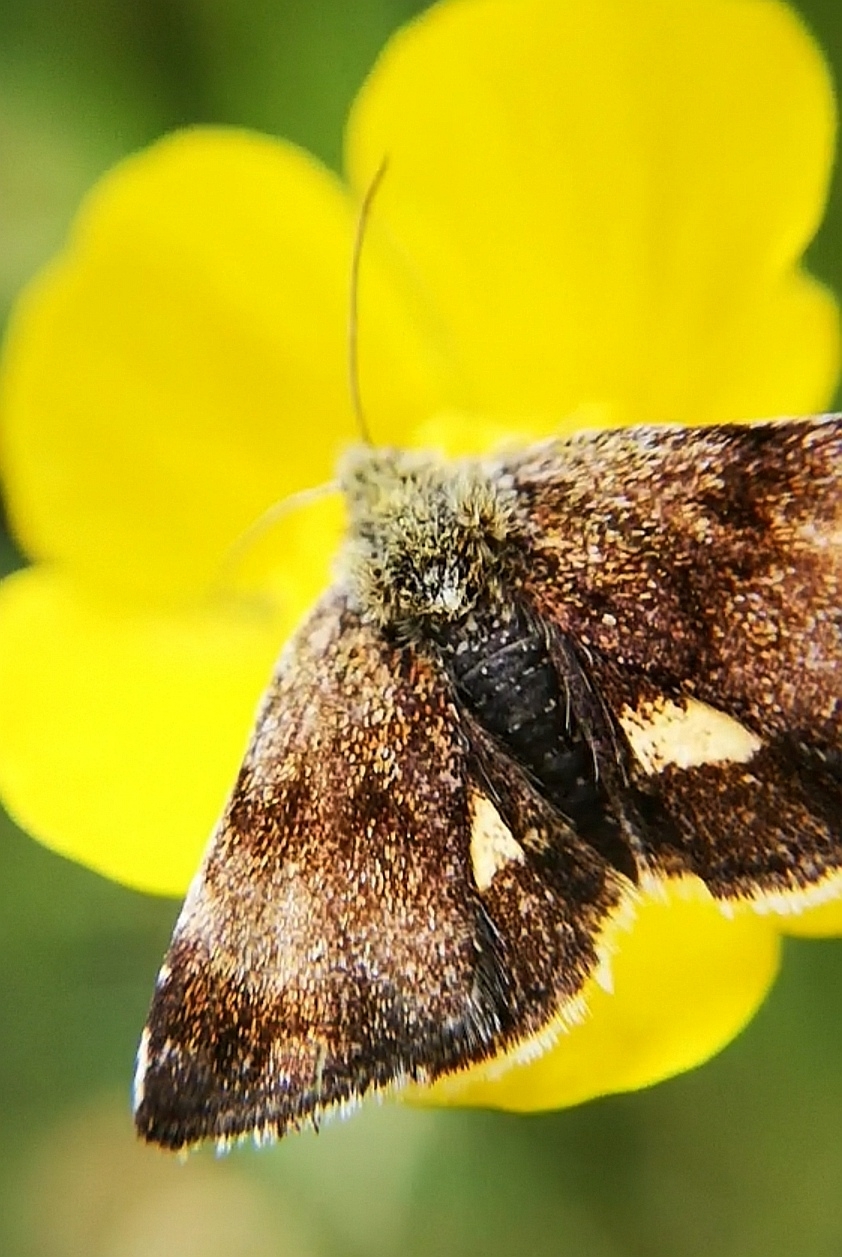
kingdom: Animalia
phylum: Arthropoda
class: Insecta
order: Lepidoptera
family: Noctuidae
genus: Panemeria
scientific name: Panemeria tenebrata
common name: Small yellow underwing
